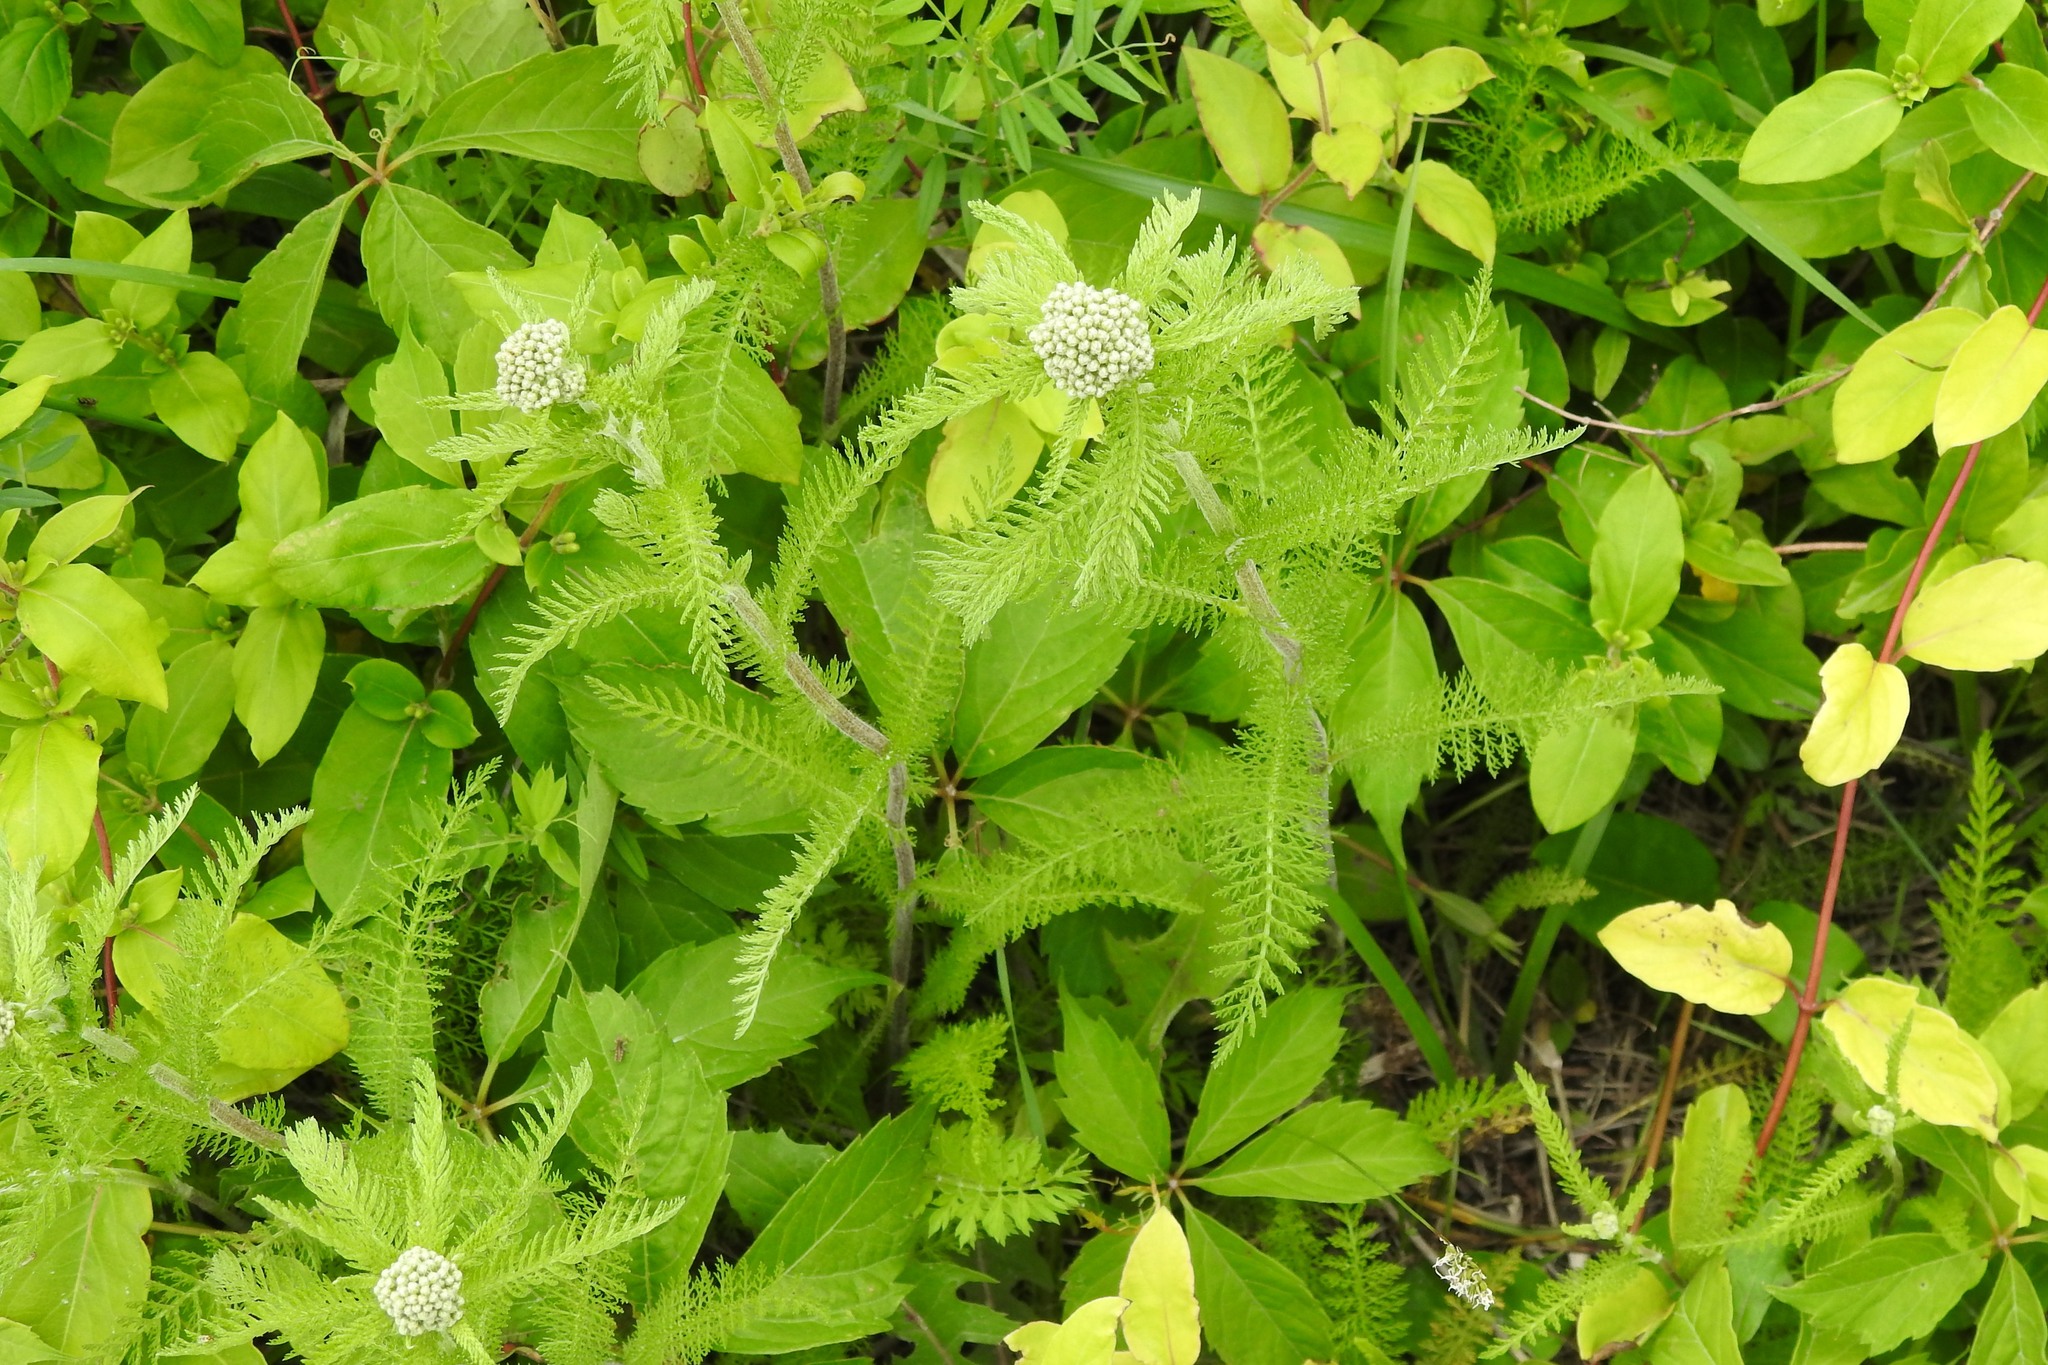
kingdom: Plantae
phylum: Tracheophyta
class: Magnoliopsida
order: Asterales
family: Asteraceae
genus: Achillea
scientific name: Achillea millefolium
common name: Yarrow
